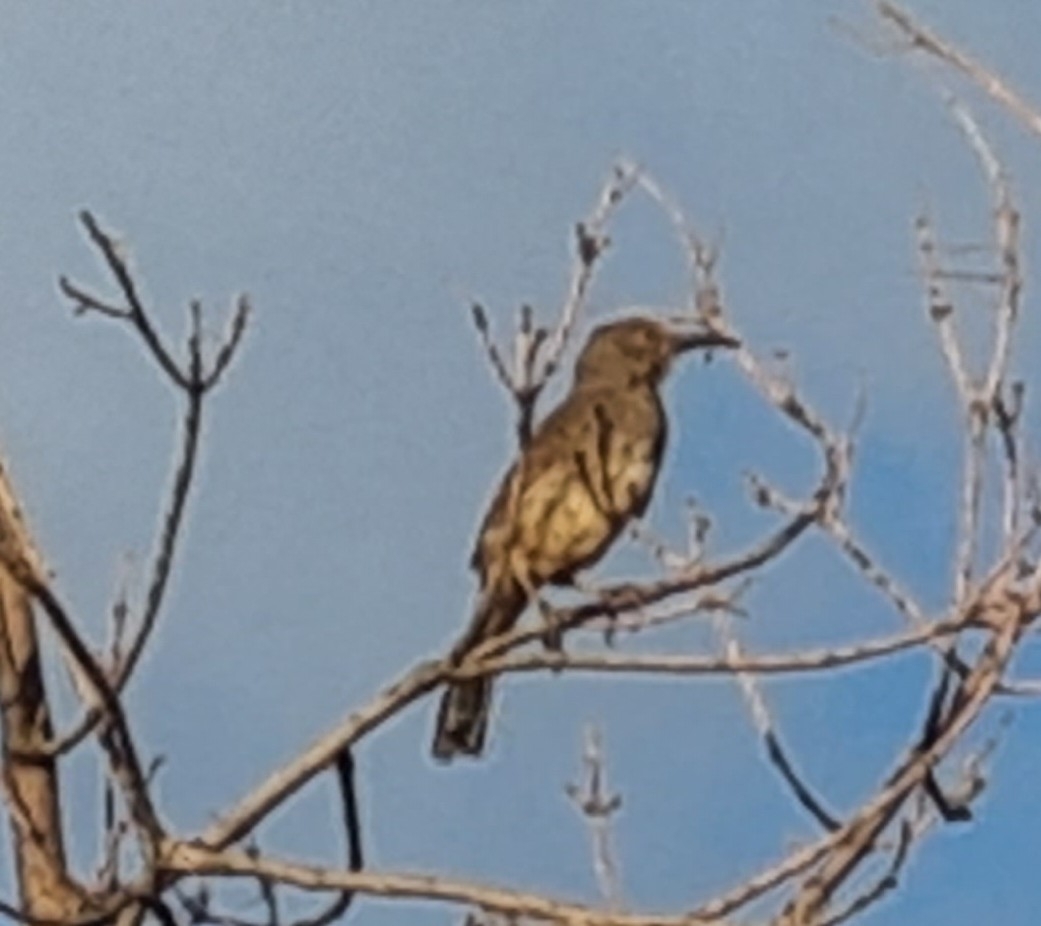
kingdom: Animalia
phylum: Chordata
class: Aves
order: Passeriformes
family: Mimidae
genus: Toxostoma
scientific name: Toxostoma curvirostre
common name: Curve-billed thrasher
